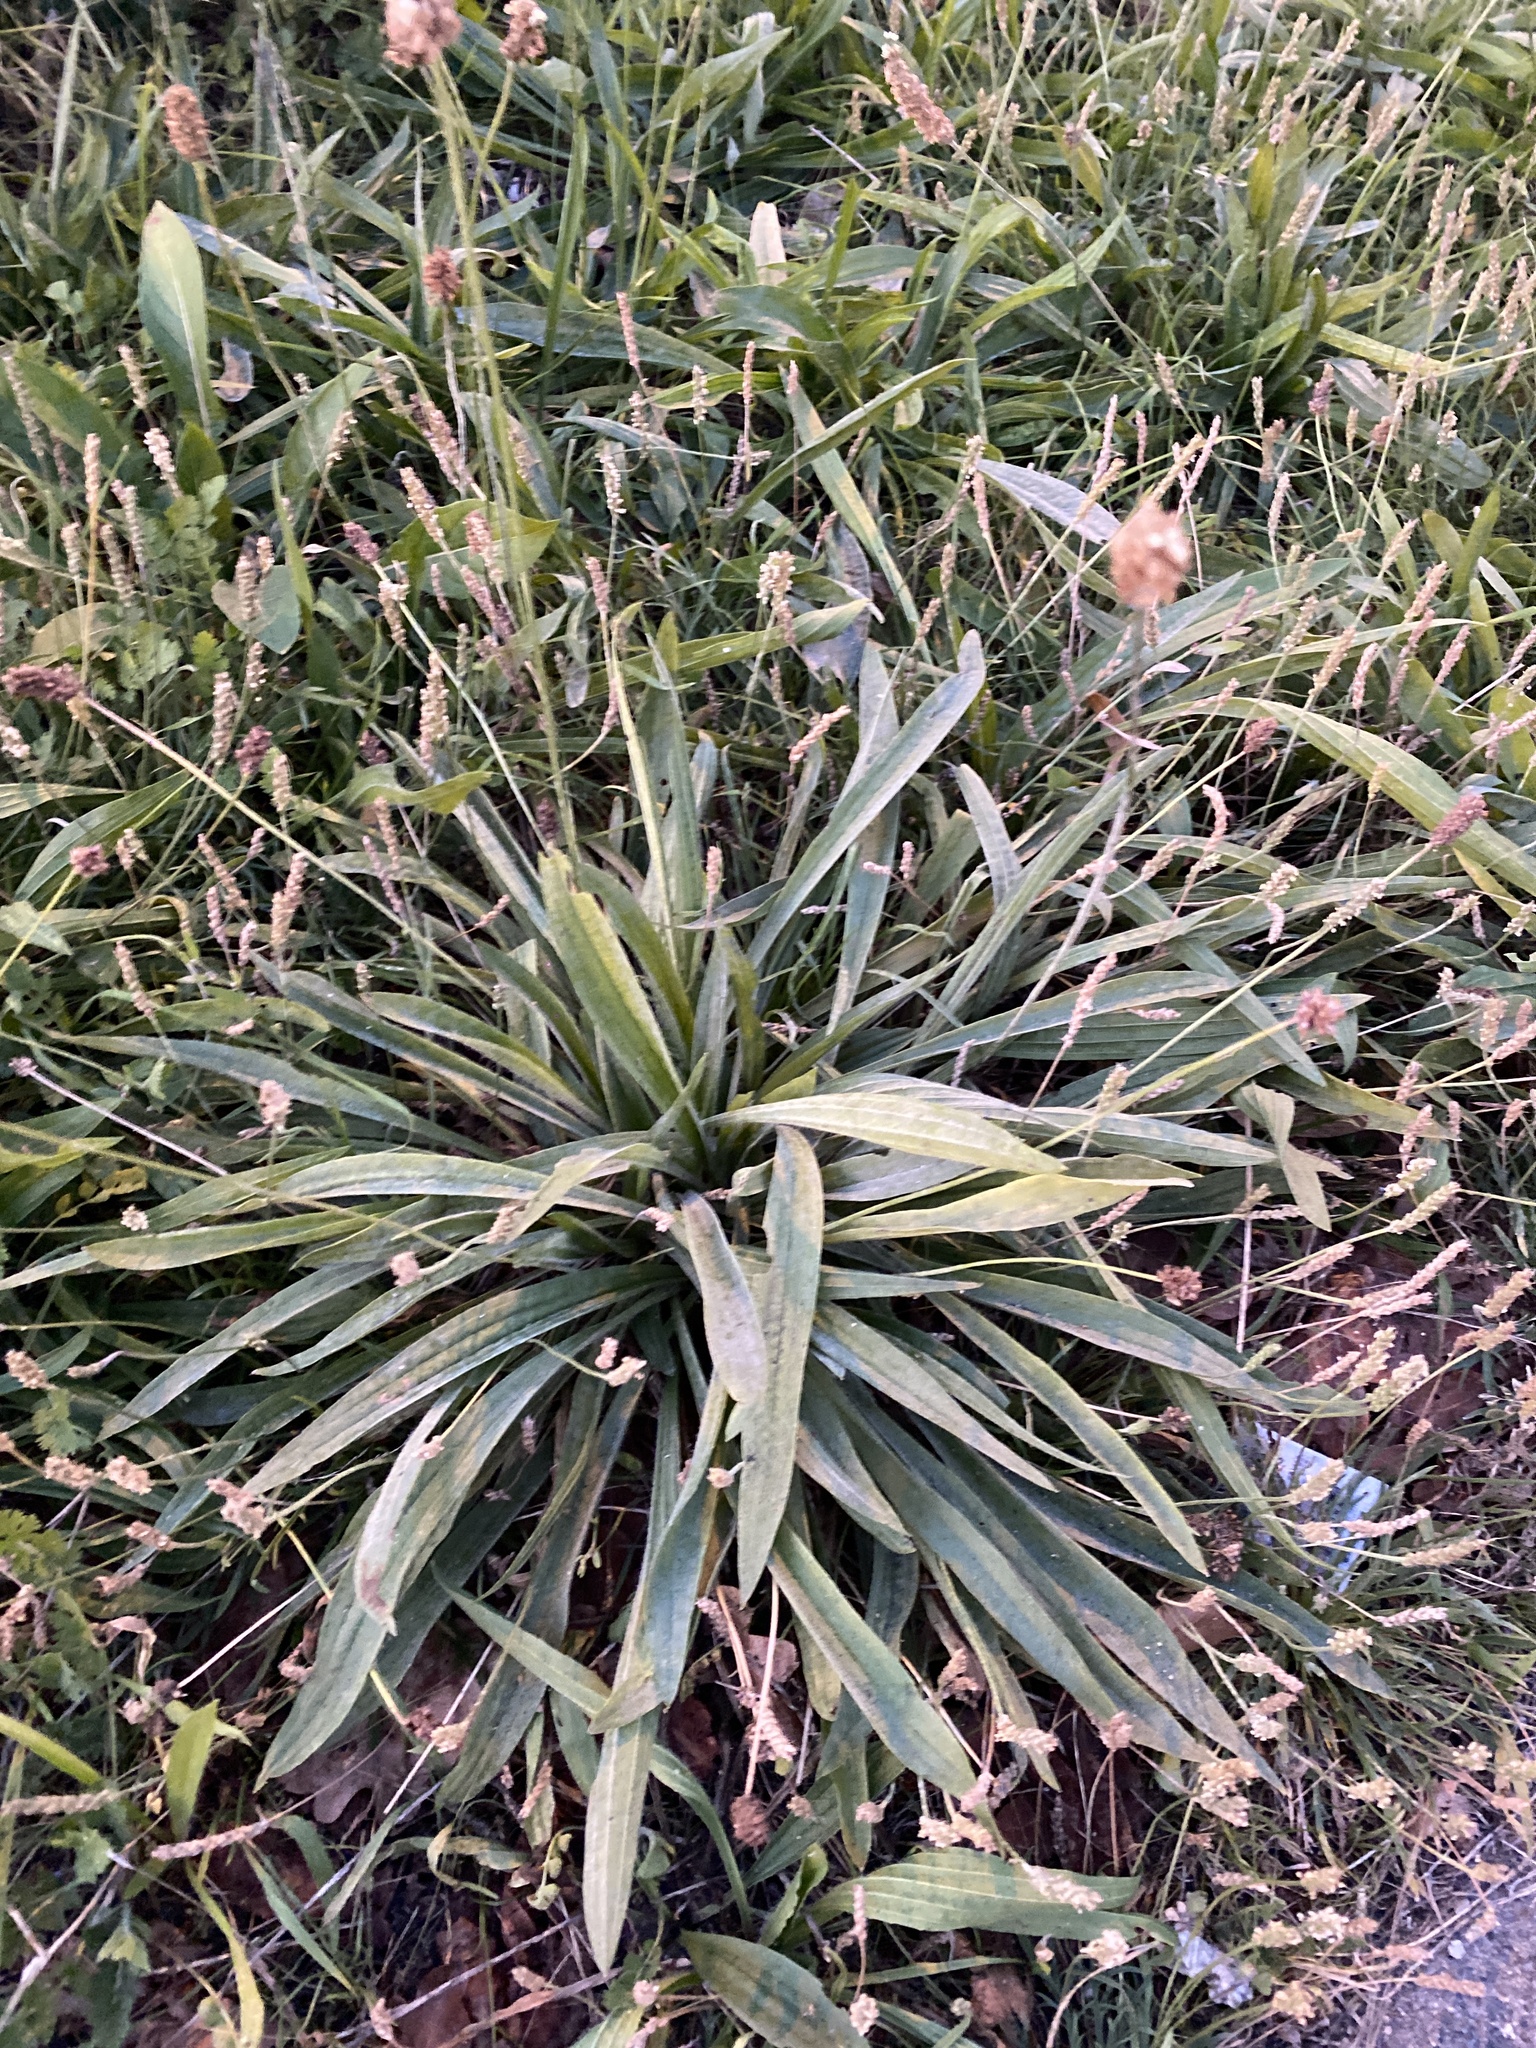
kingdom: Plantae
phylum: Tracheophyta
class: Magnoliopsida
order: Lamiales
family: Plantaginaceae
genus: Plantago
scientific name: Plantago lanceolata
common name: Ribwort plantain
